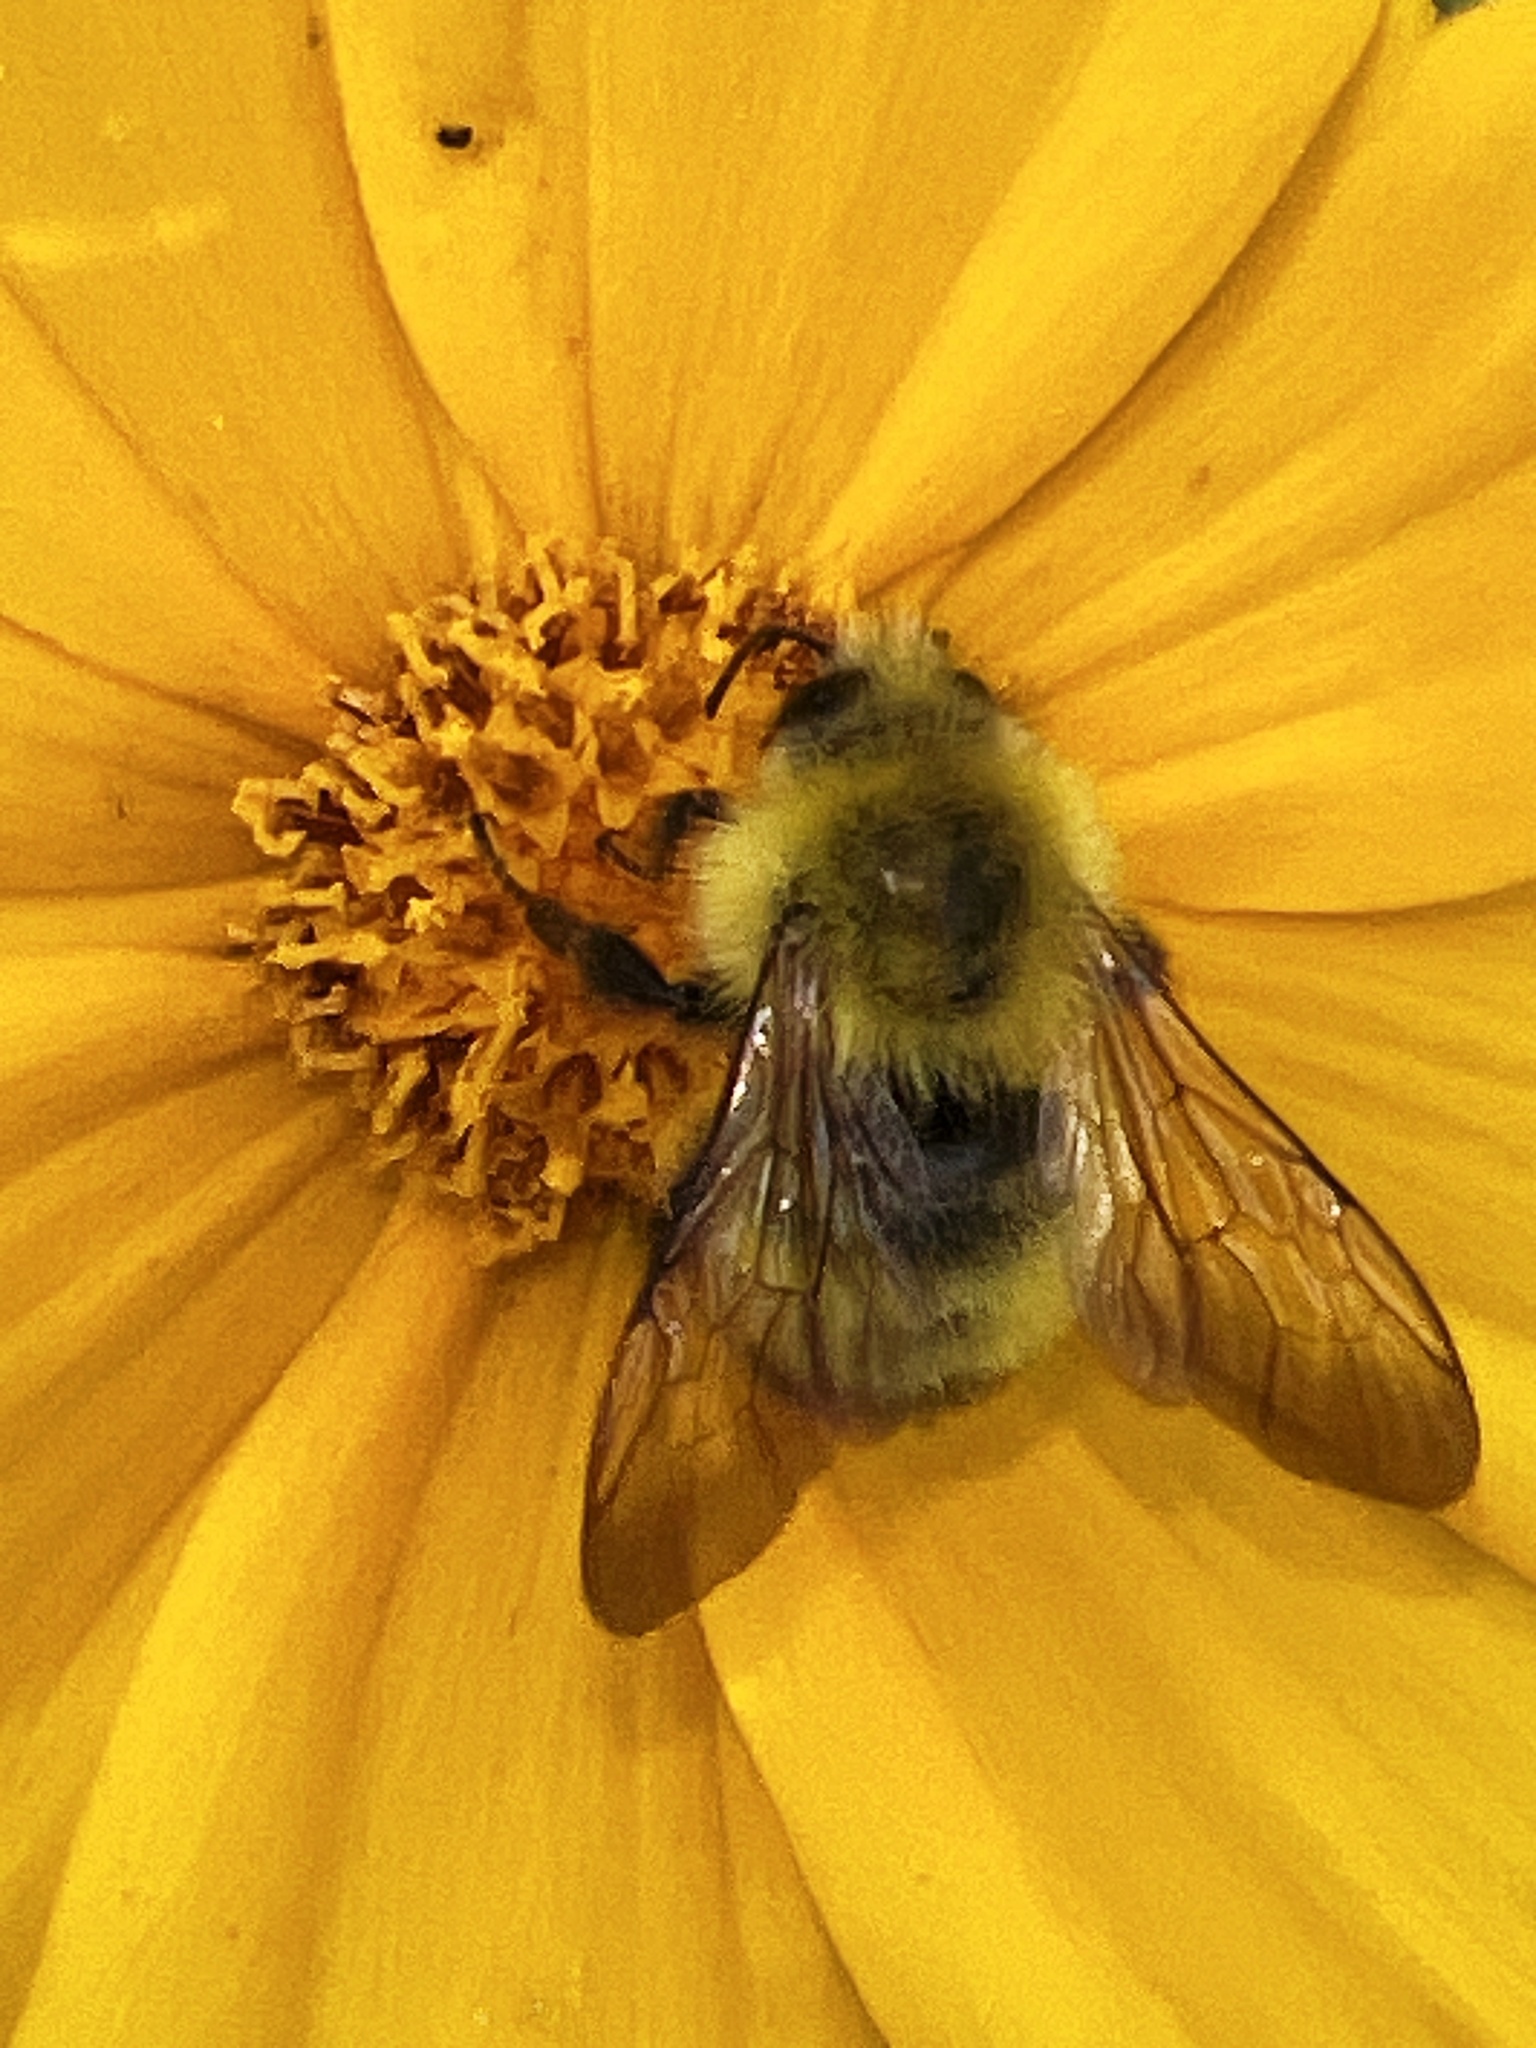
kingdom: Animalia
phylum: Arthropoda
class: Insecta
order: Hymenoptera
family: Apidae
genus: Bombus
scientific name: Bombus perplexus
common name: Confusing bumble bee
